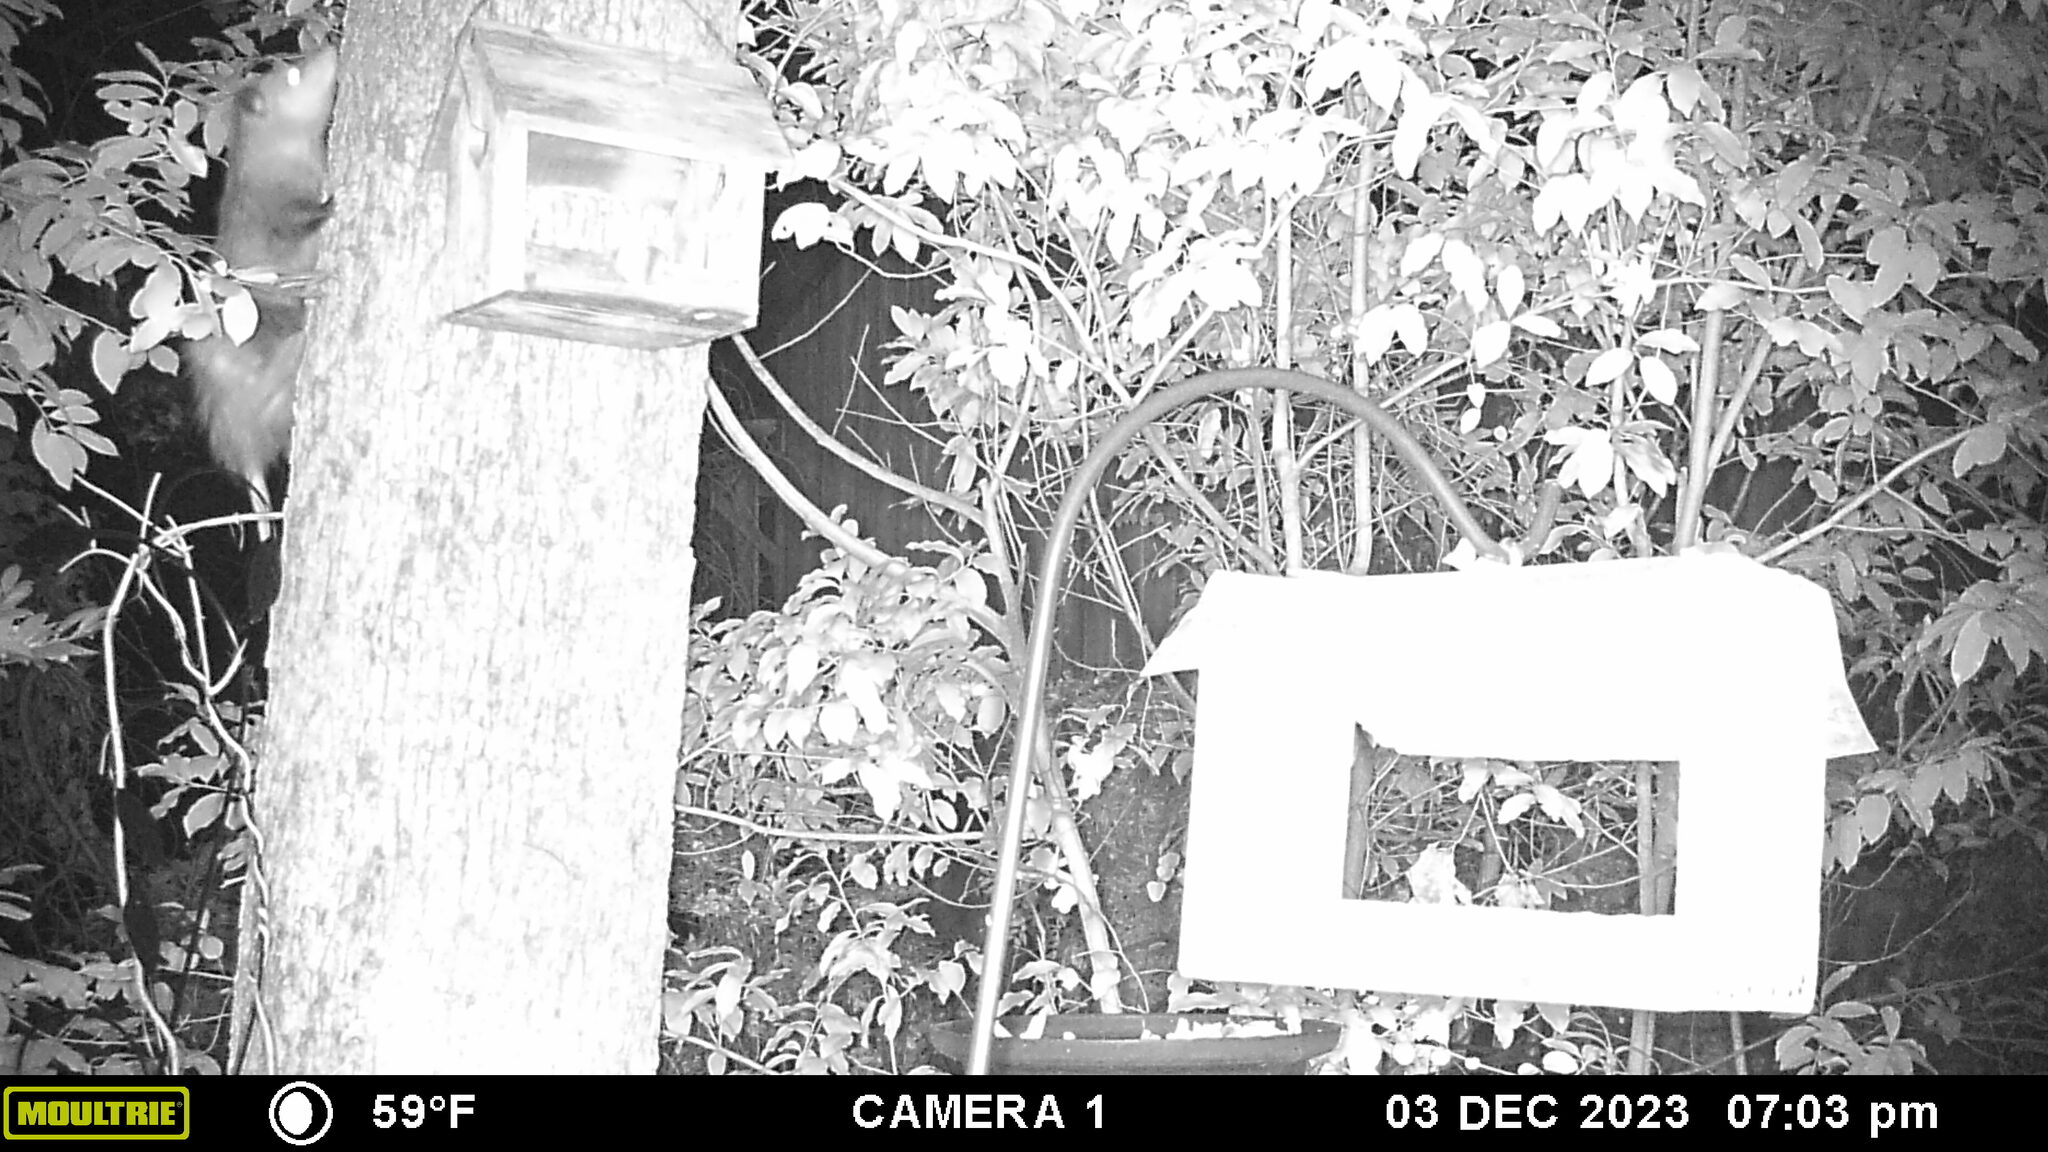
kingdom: Animalia
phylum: Chordata
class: Mammalia
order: Didelphimorphia
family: Didelphidae
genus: Didelphis
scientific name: Didelphis virginiana
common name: Virginia opossum
